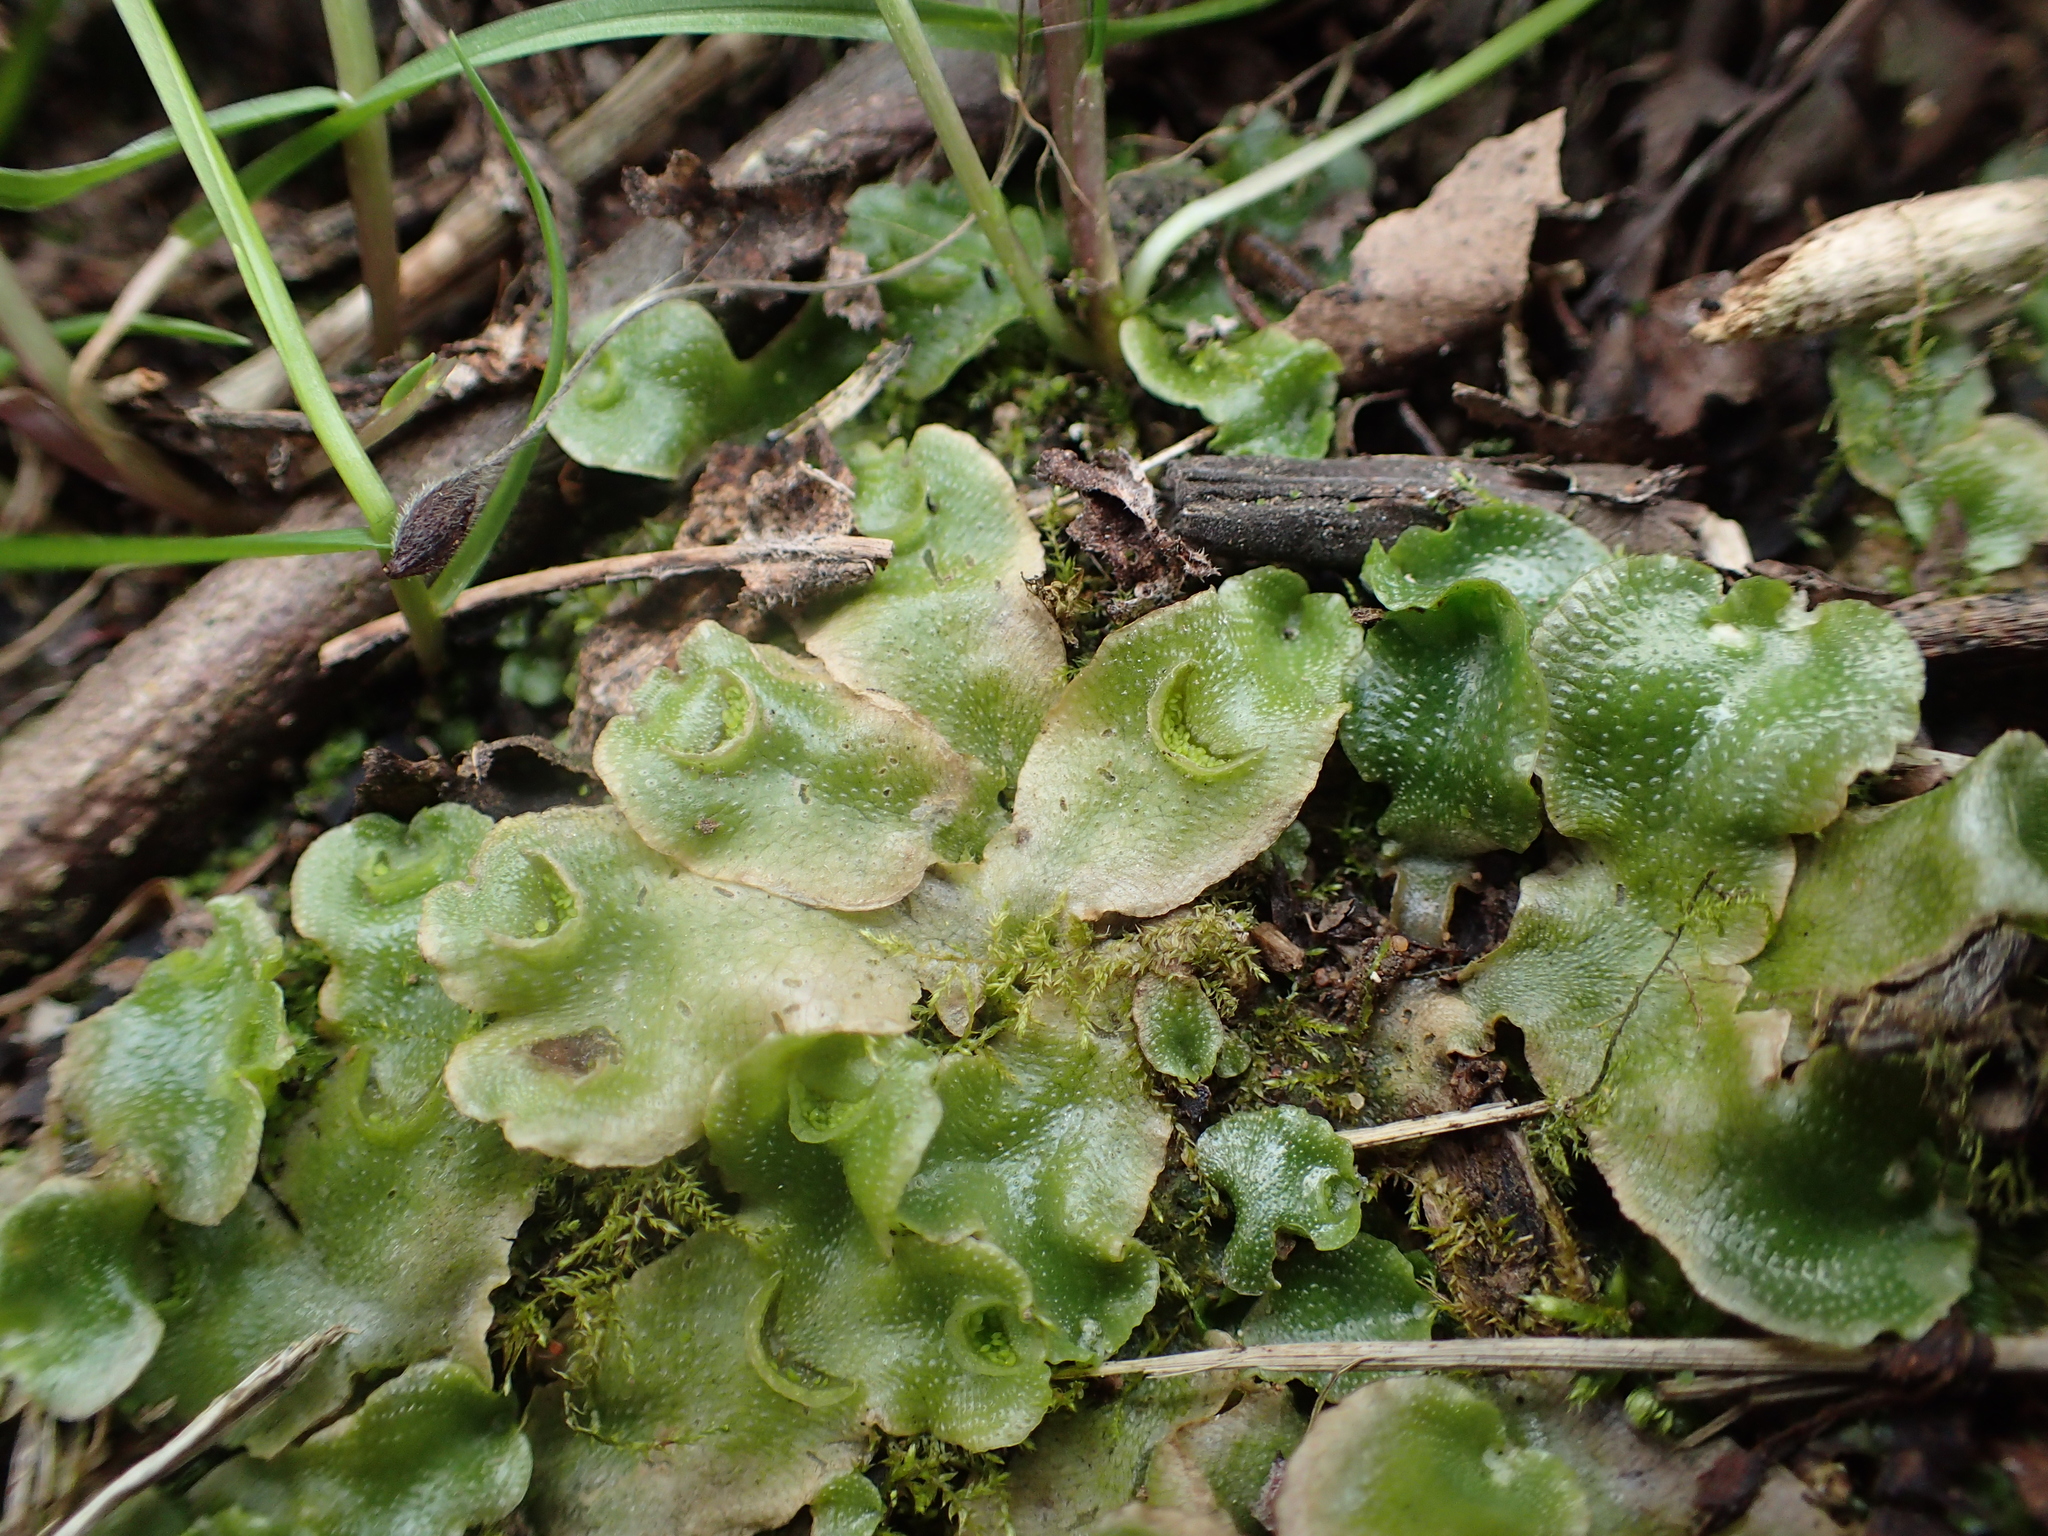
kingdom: Plantae
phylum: Marchantiophyta
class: Marchantiopsida
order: Lunulariales
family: Lunulariaceae
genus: Lunularia
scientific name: Lunularia cruciata
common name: Crescent-cup liverwort
